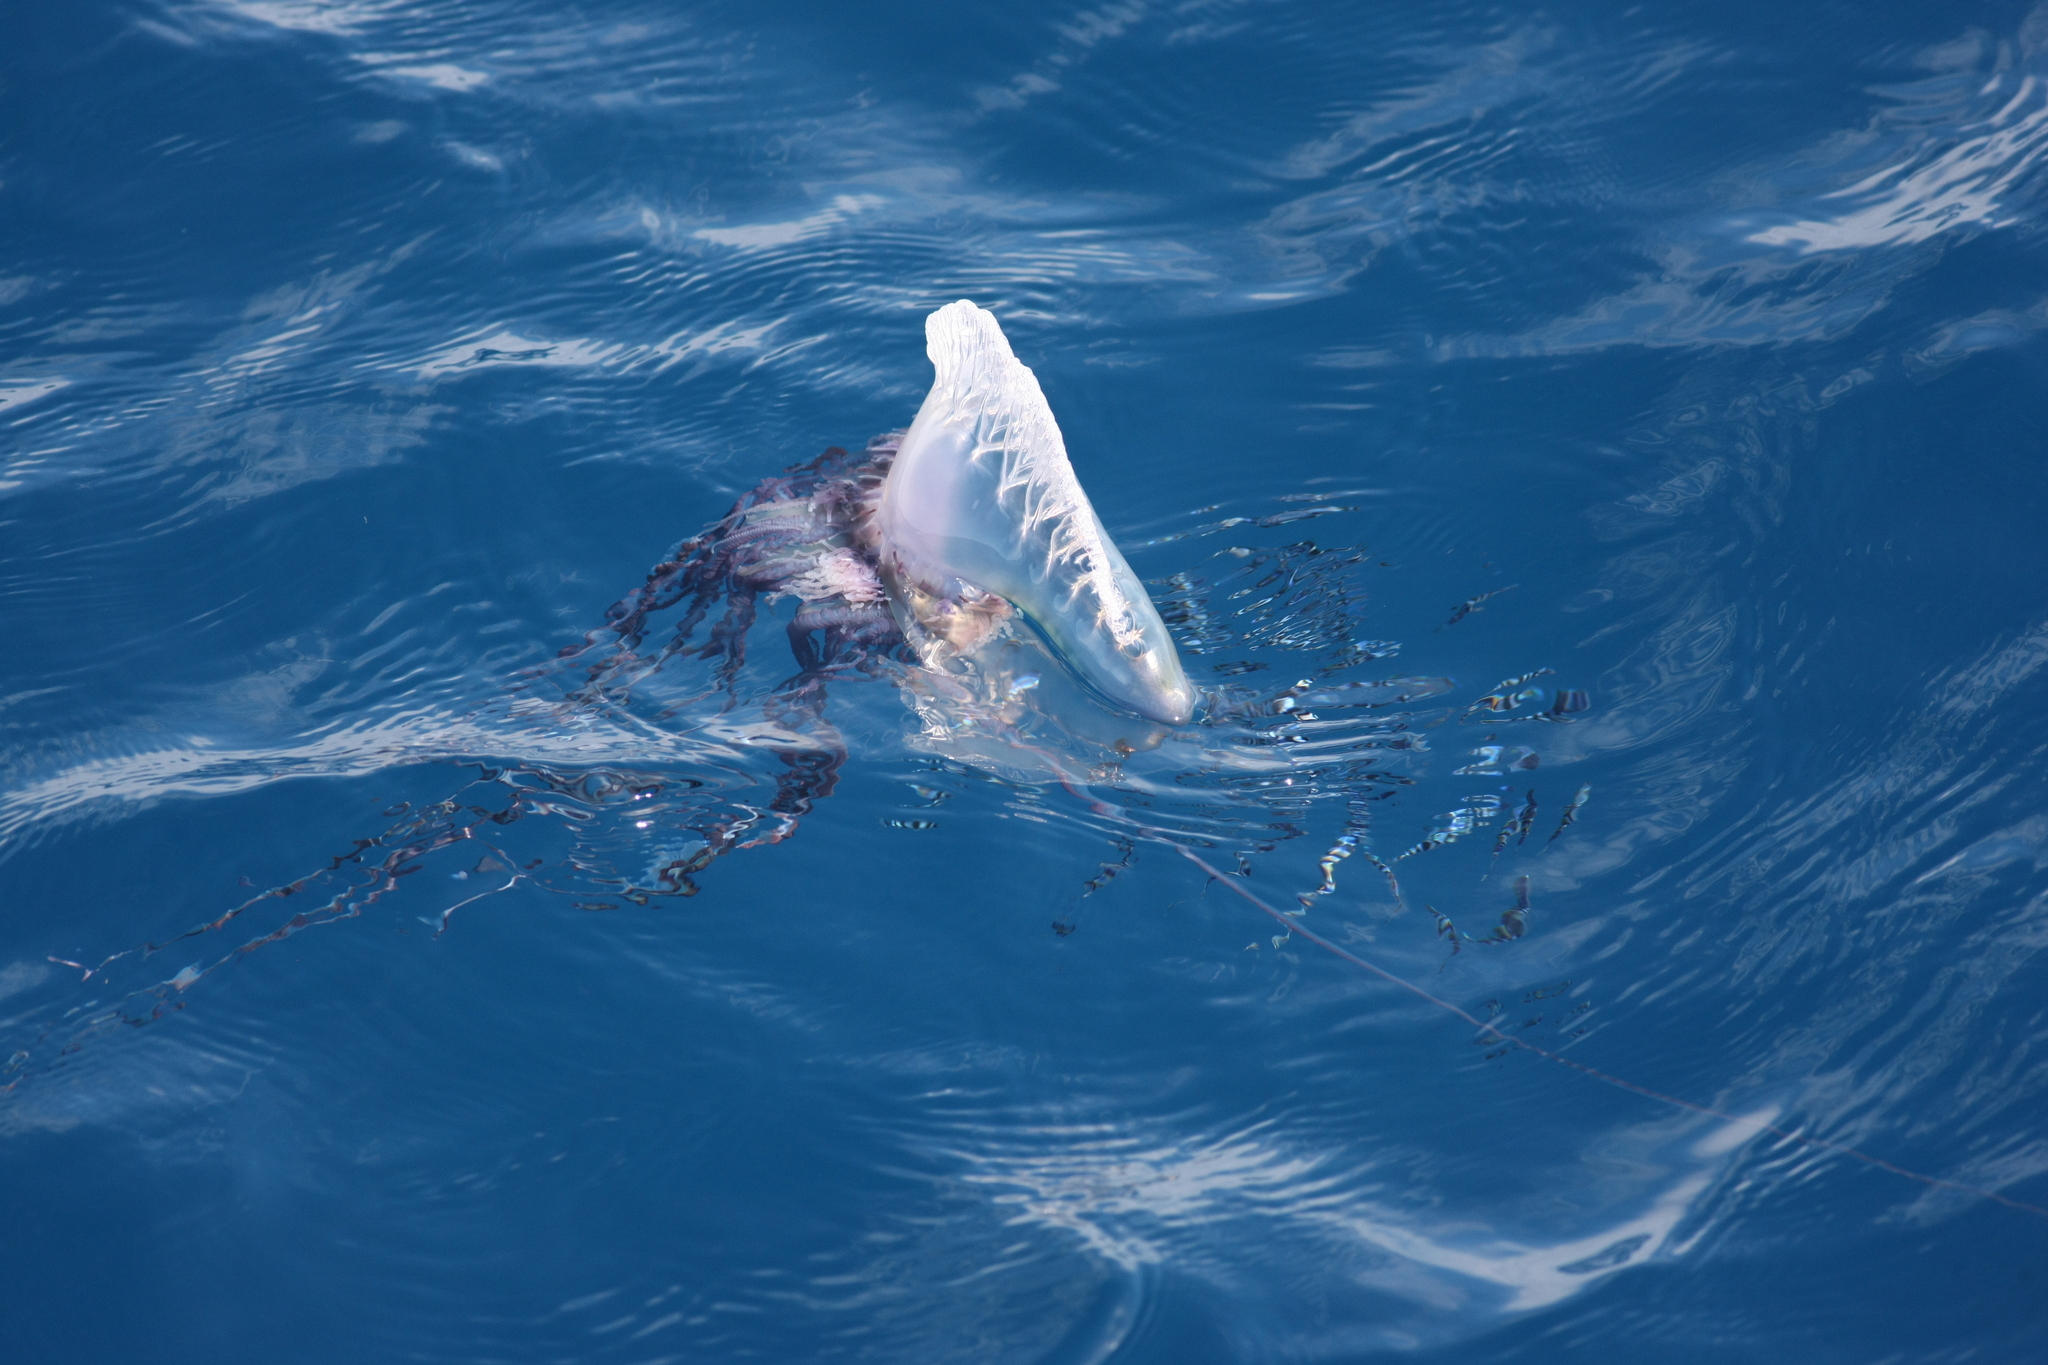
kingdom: Animalia
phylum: Cnidaria
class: Hydrozoa
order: Siphonophorae
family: Physaliidae
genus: Physalia
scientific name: Physalia physalis
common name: Portuguese man-of-war
